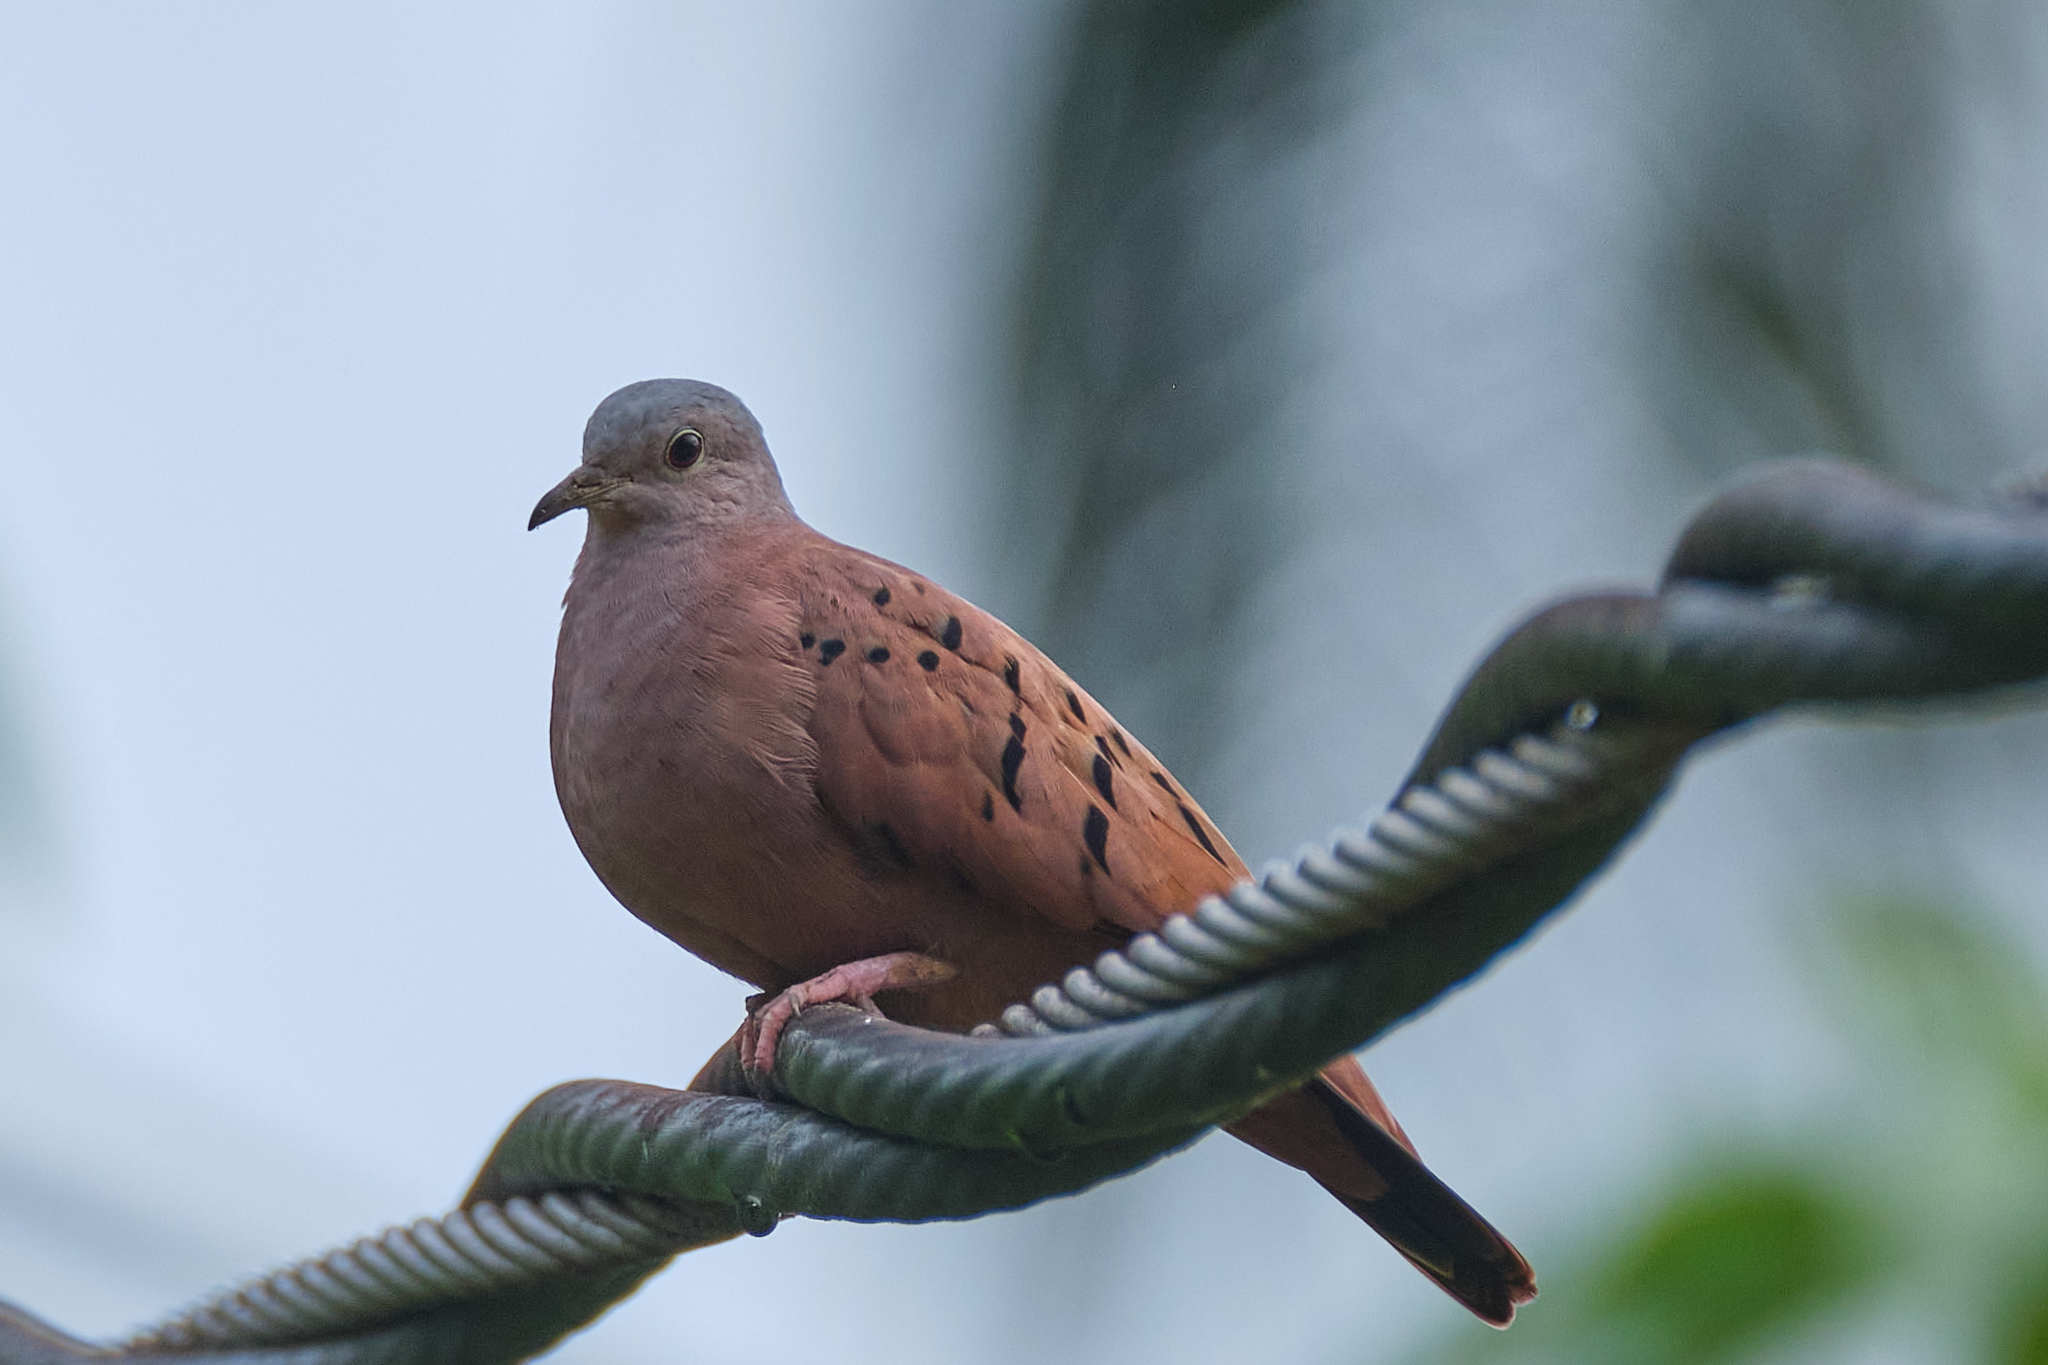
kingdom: Animalia
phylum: Chordata
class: Aves
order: Columbiformes
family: Columbidae
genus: Columbina
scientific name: Columbina talpacoti
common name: Ruddy ground dove
